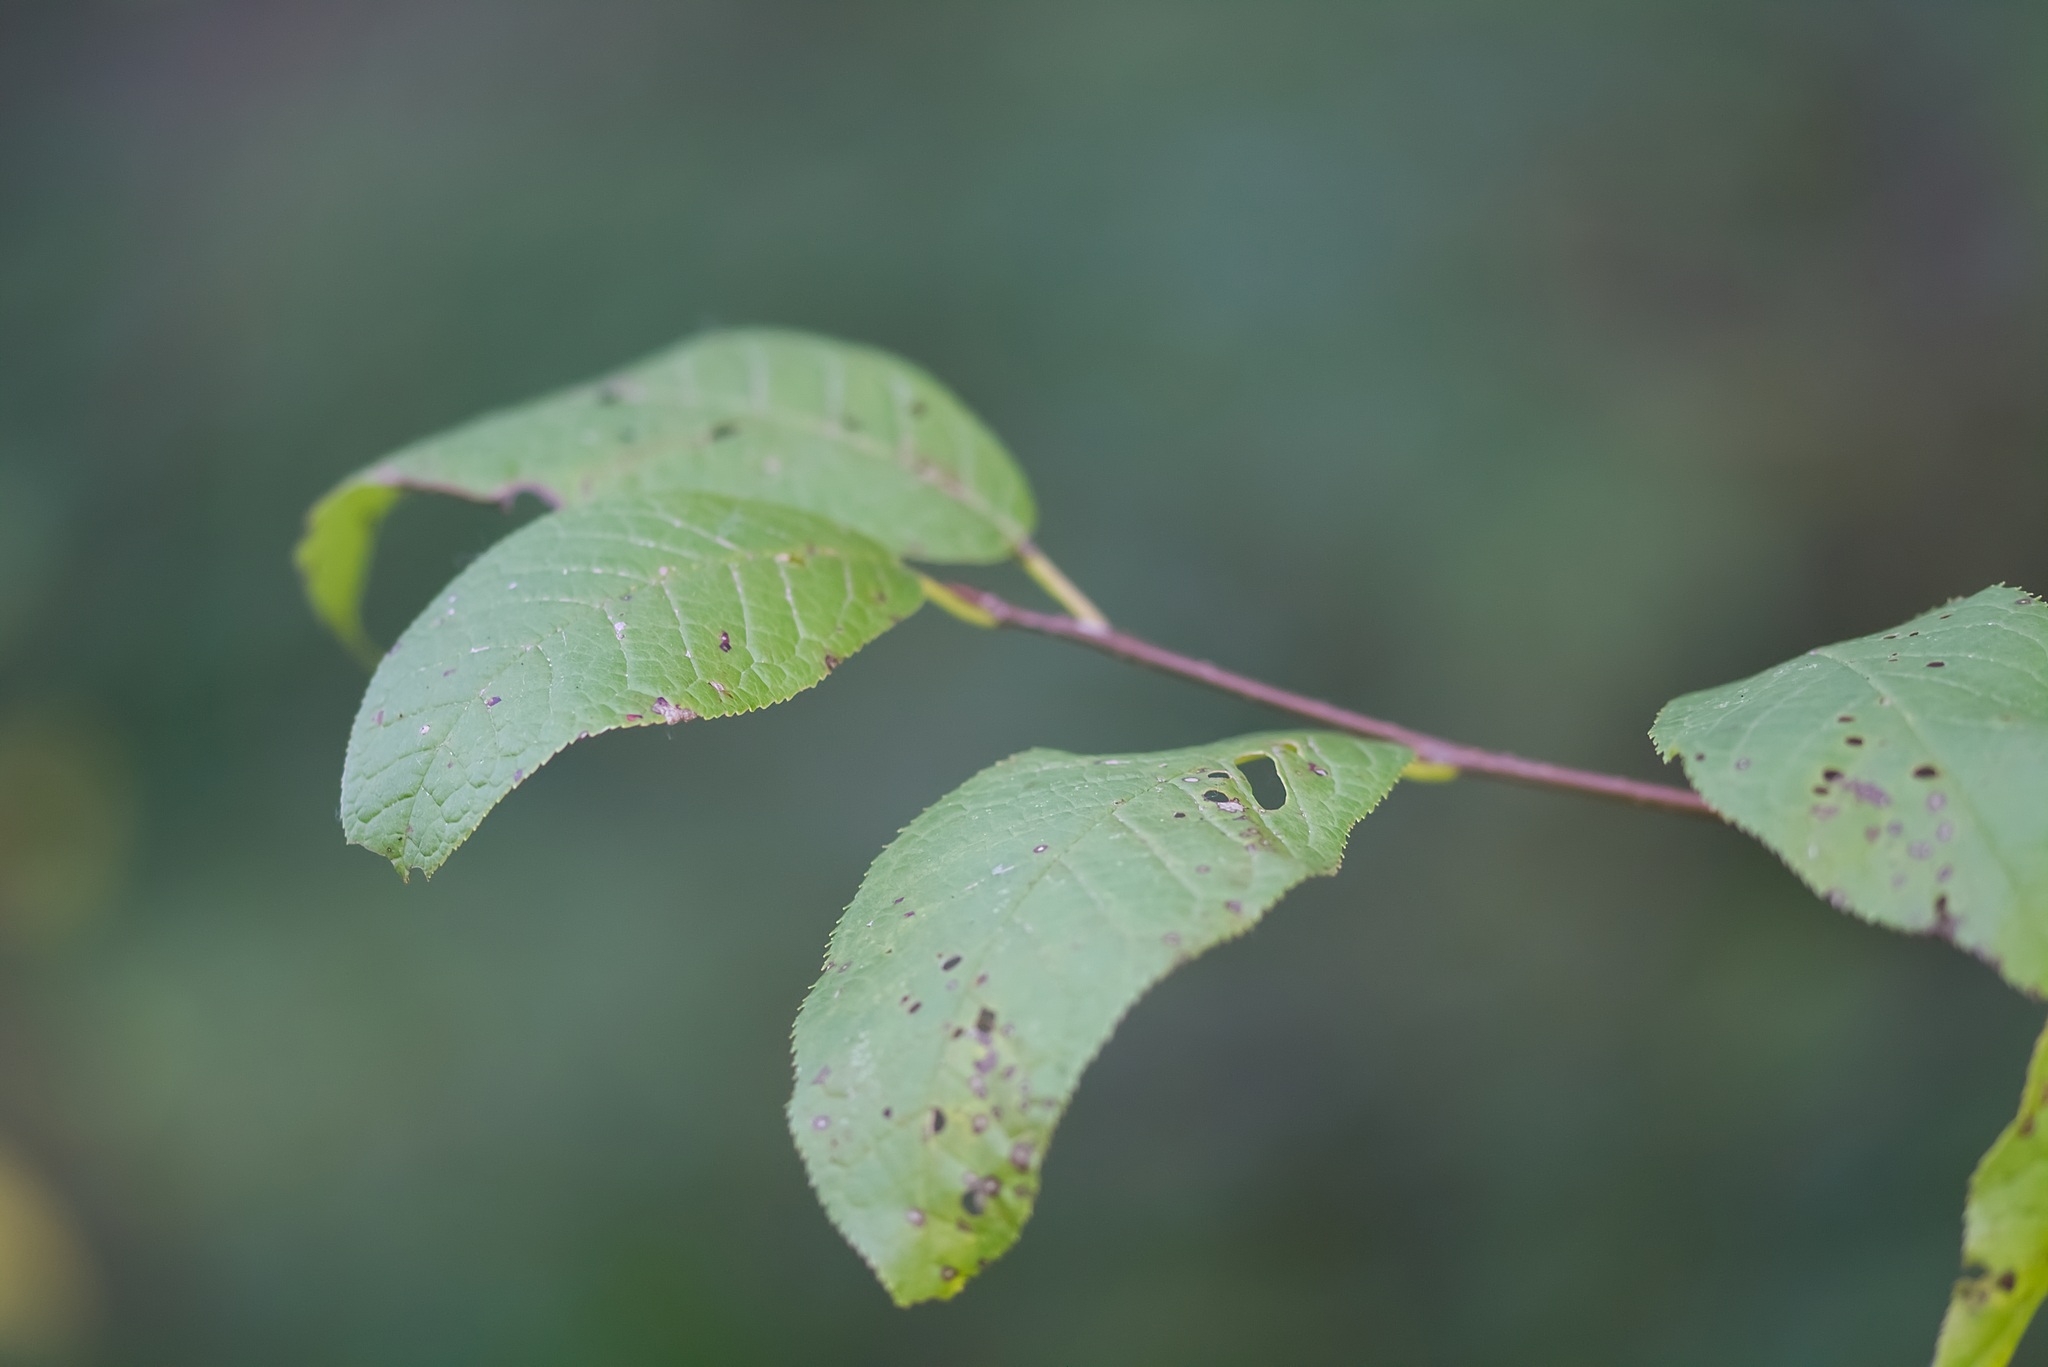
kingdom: Plantae
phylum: Tracheophyta
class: Magnoliopsida
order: Rosales
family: Rosaceae
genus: Prunus
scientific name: Prunus padus
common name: Bird cherry
